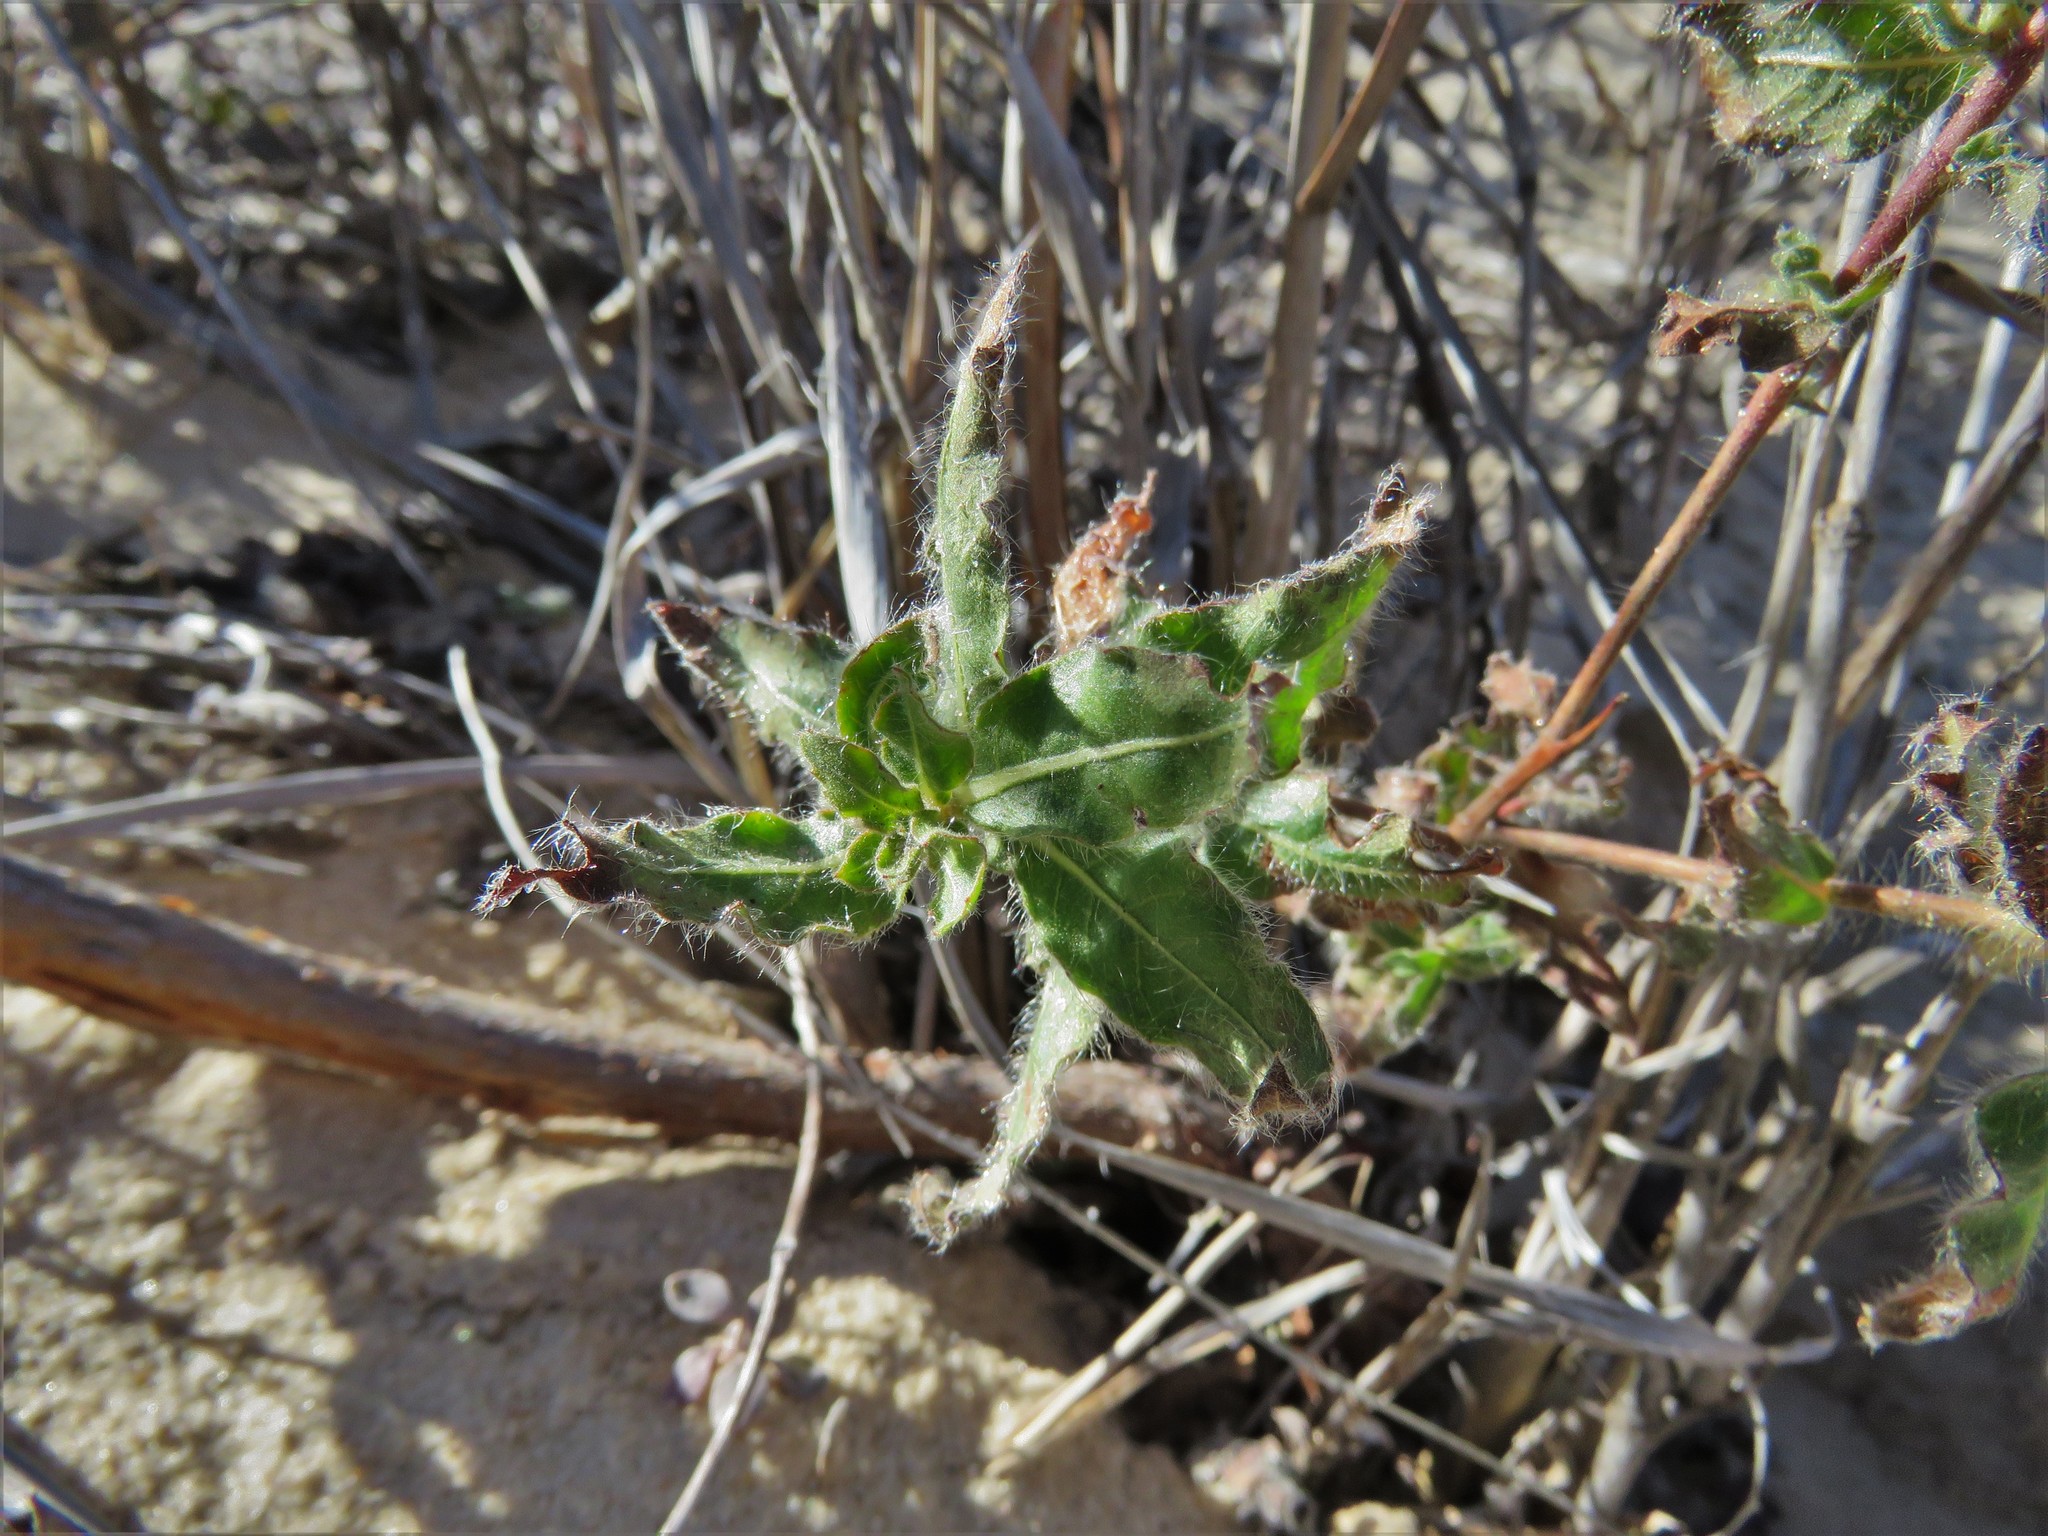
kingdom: Plantae
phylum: Tracheophyta
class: Magnoliopsida
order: Myrtales
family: Onagraceae
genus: Oenothera
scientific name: Oenothera cinerea
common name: Woolly beeblossom
